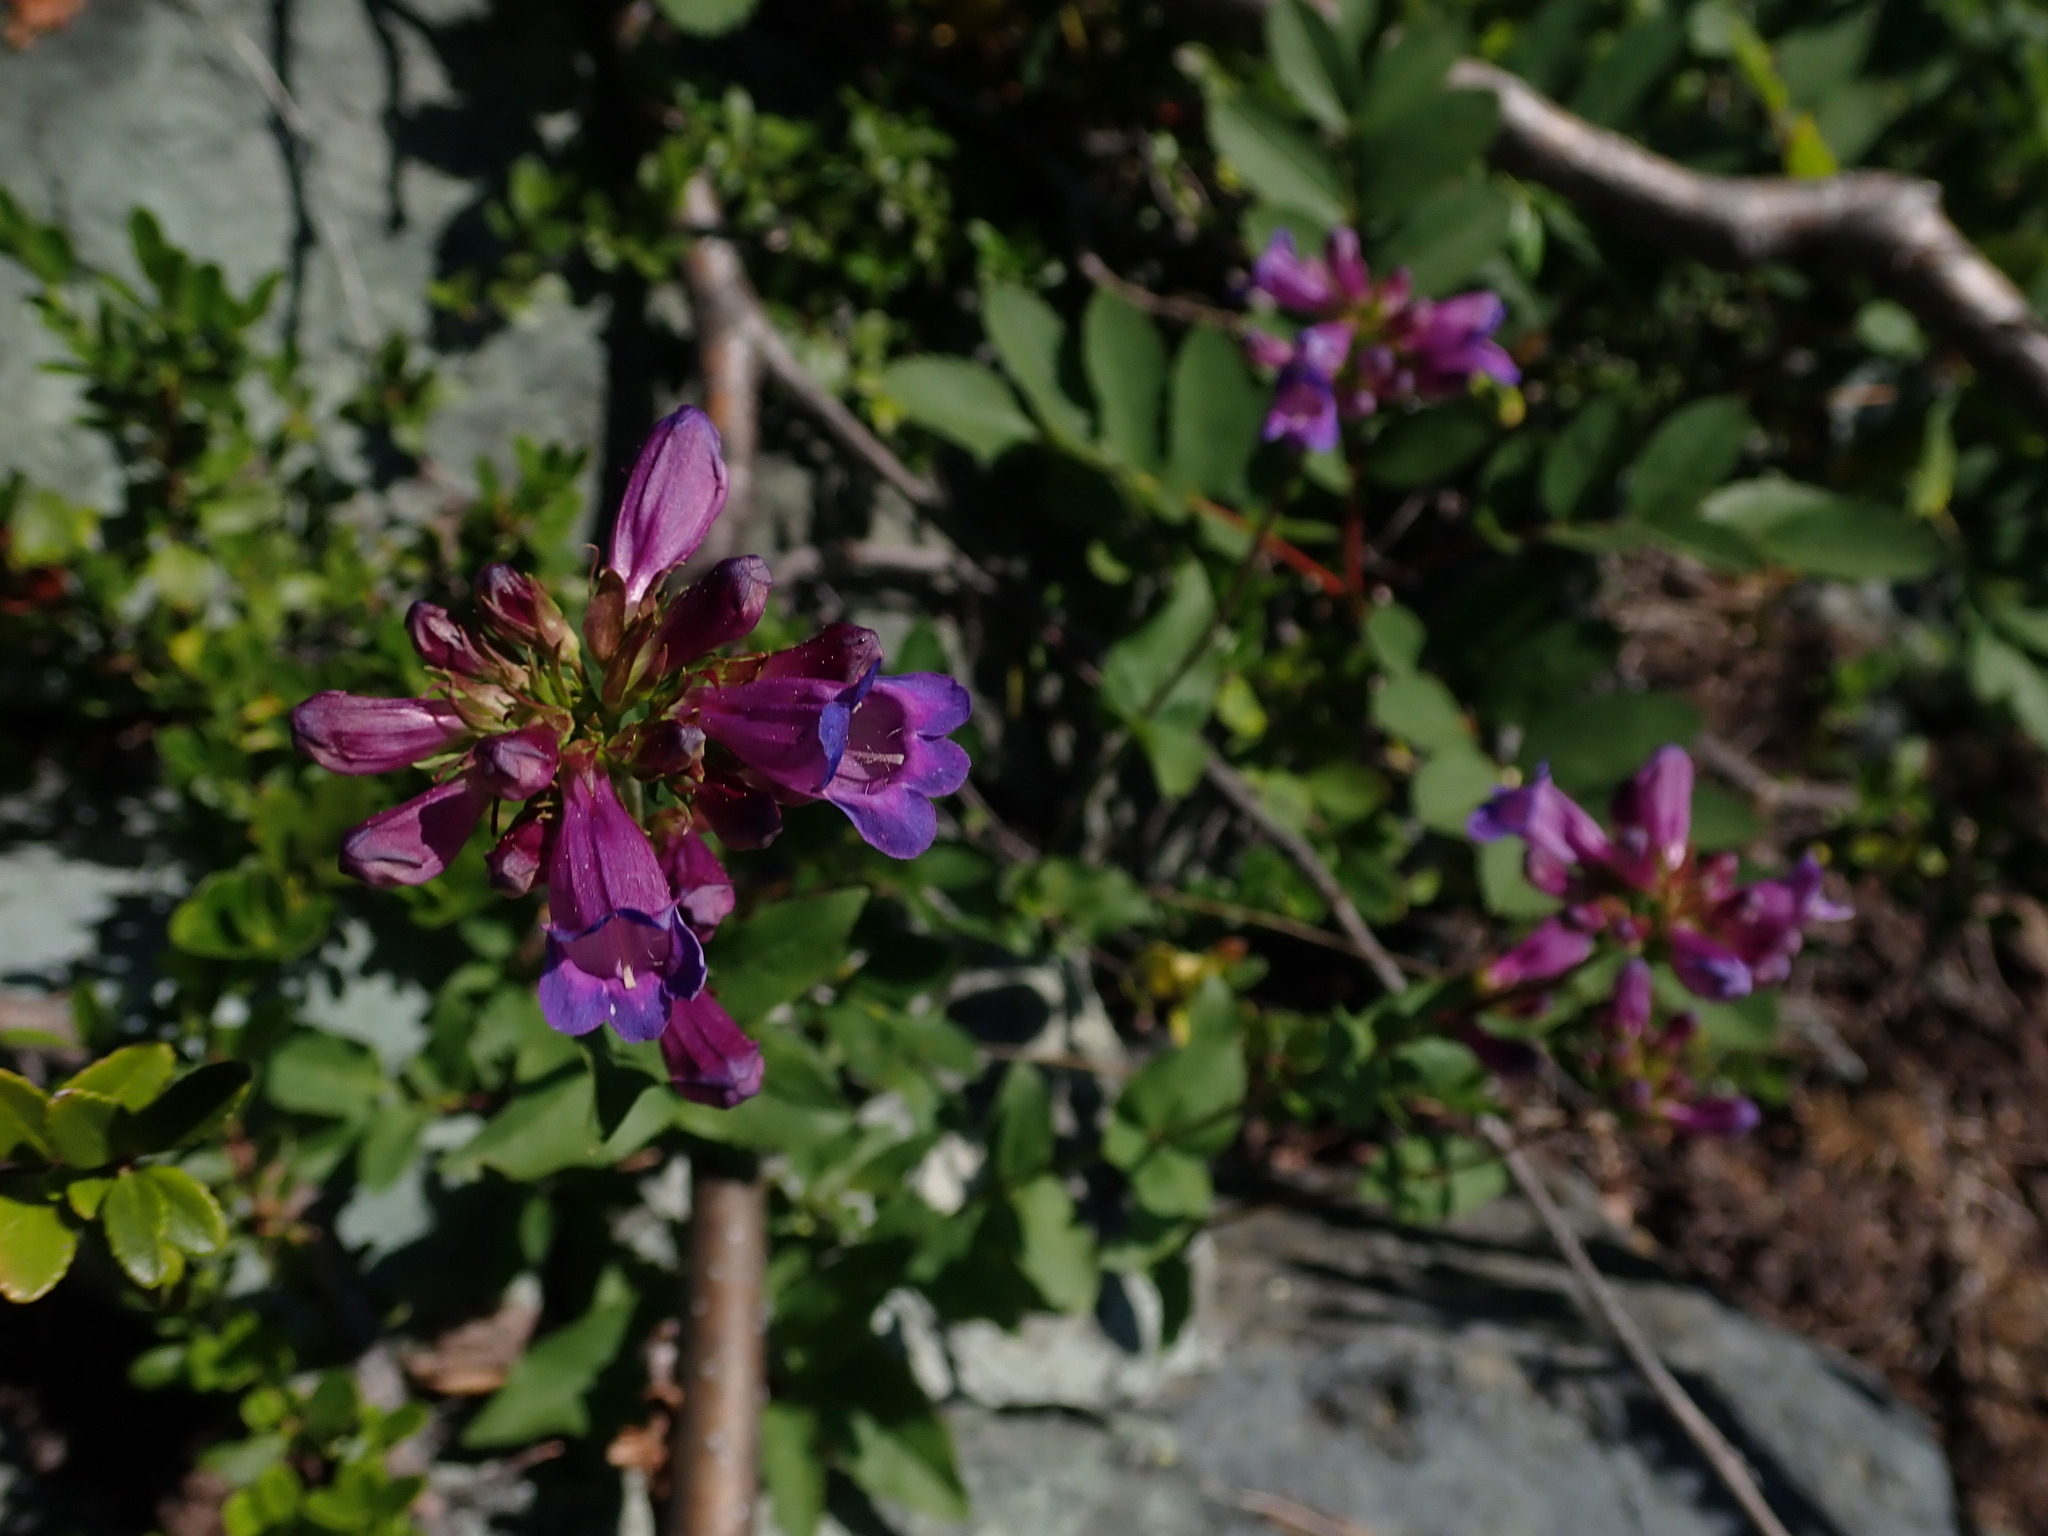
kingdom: Plantae
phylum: Tracheophyta
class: Magnoliopsida
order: Lamiales
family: Plantaginaceae
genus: Penstemon
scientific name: Penstemon serrulatus
